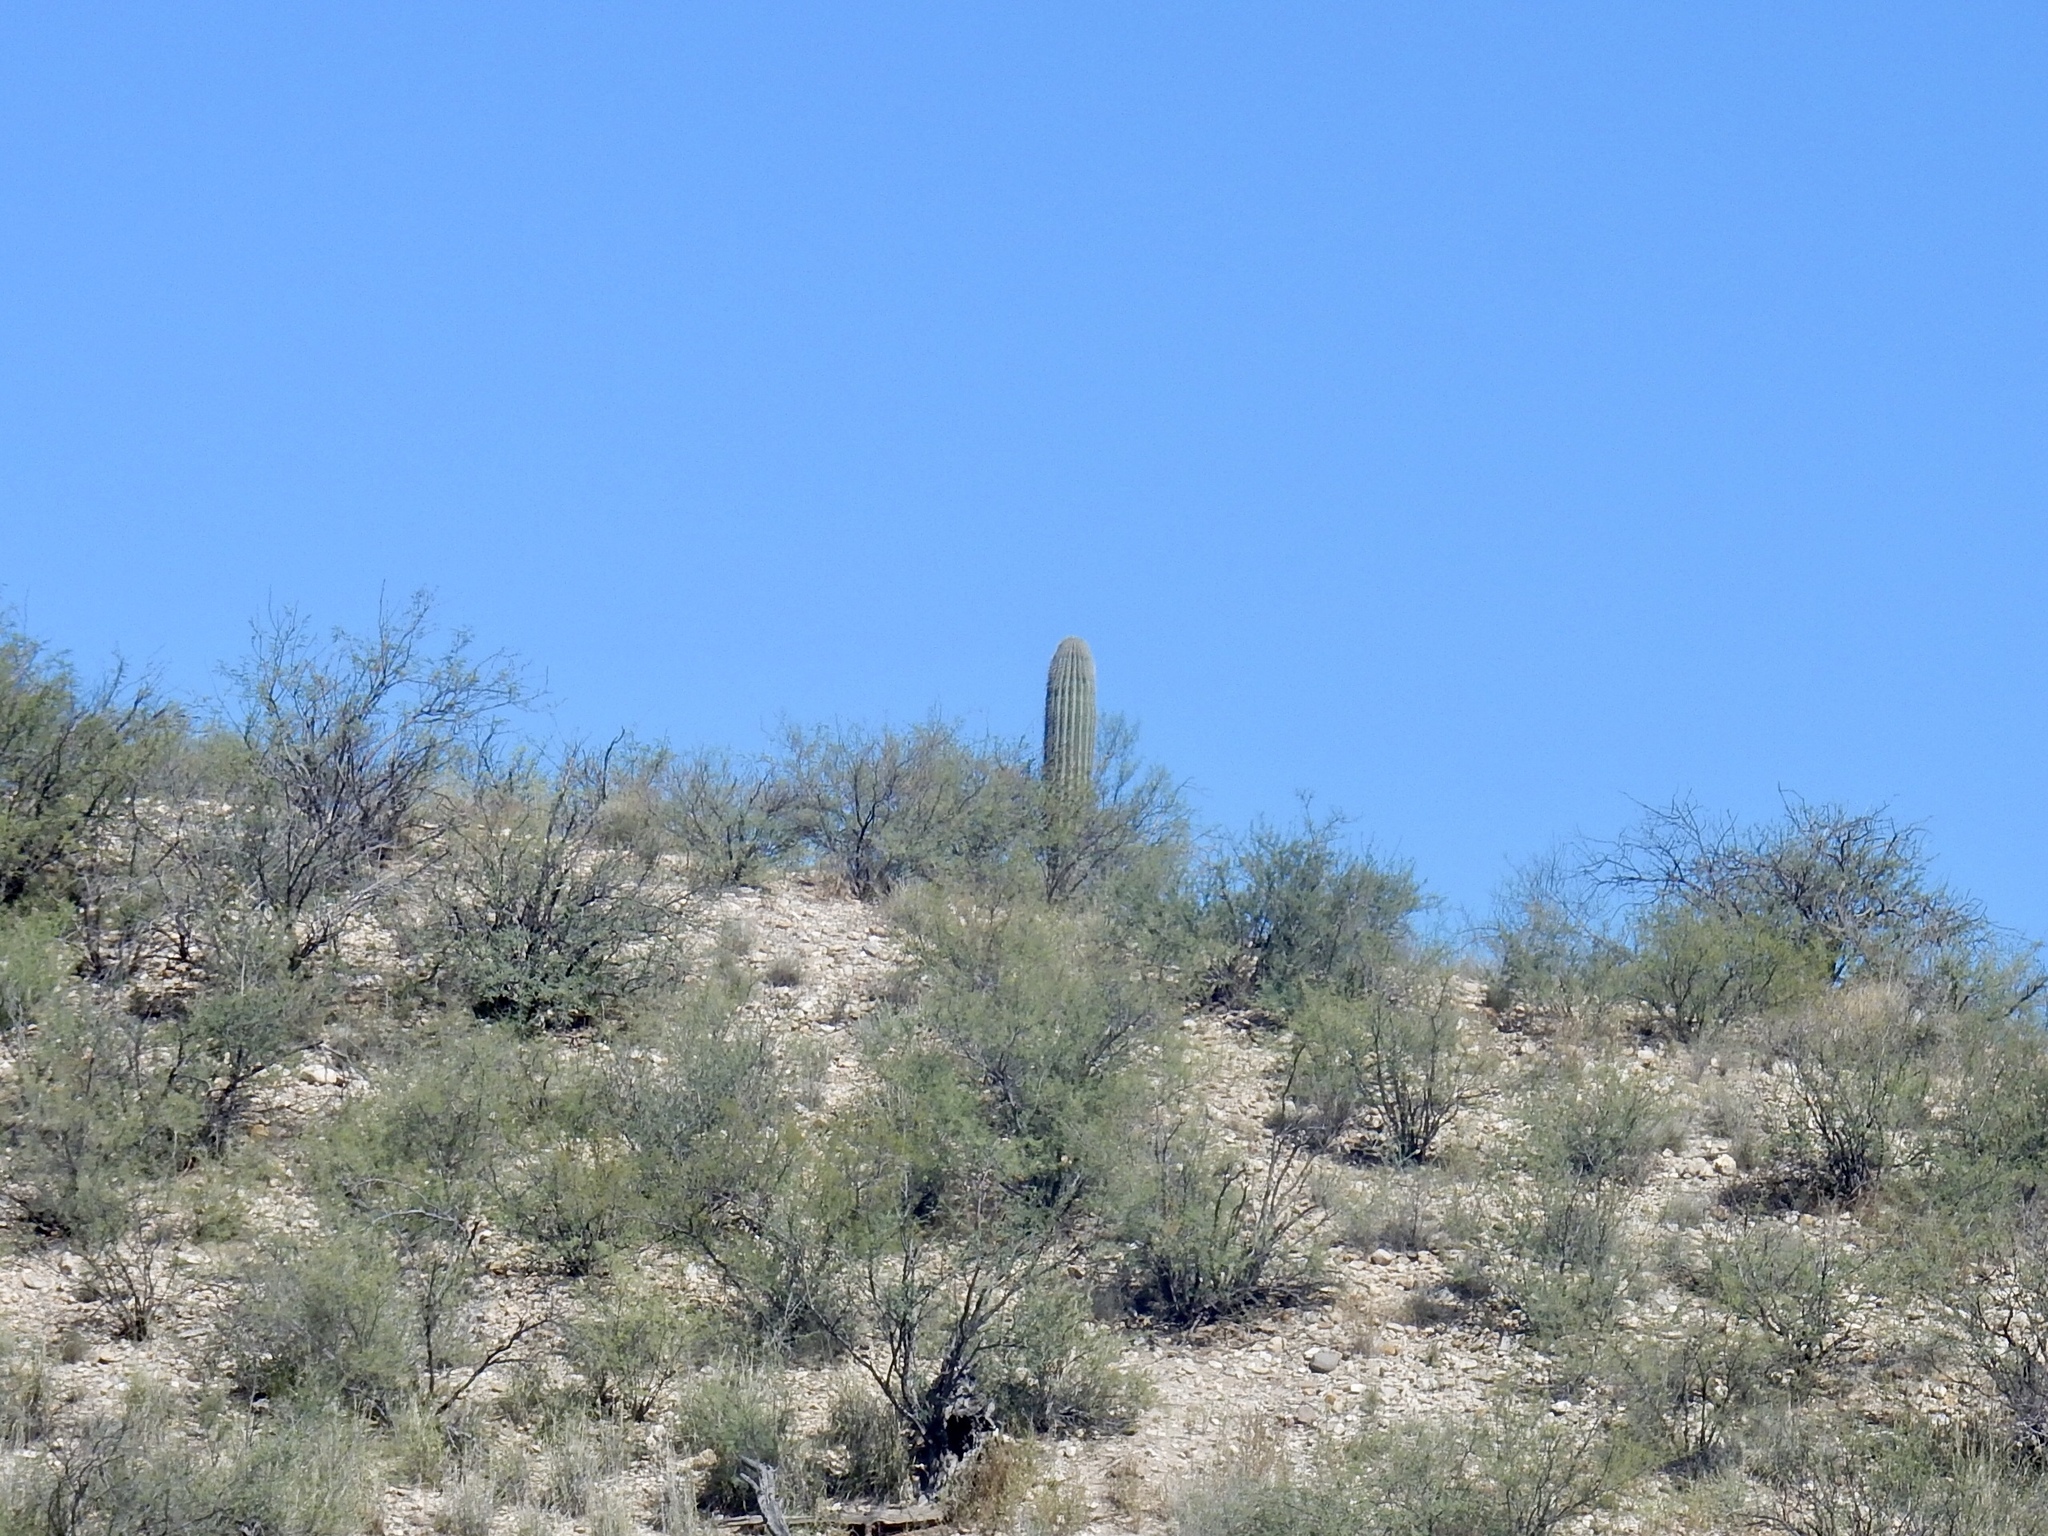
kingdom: Plantae
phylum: Tracheophyta
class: Magnoliopsida
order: Caryophyllales
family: Cactaceae
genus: Carnegiea
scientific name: Carnegiea gigantea
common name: Saguaro
